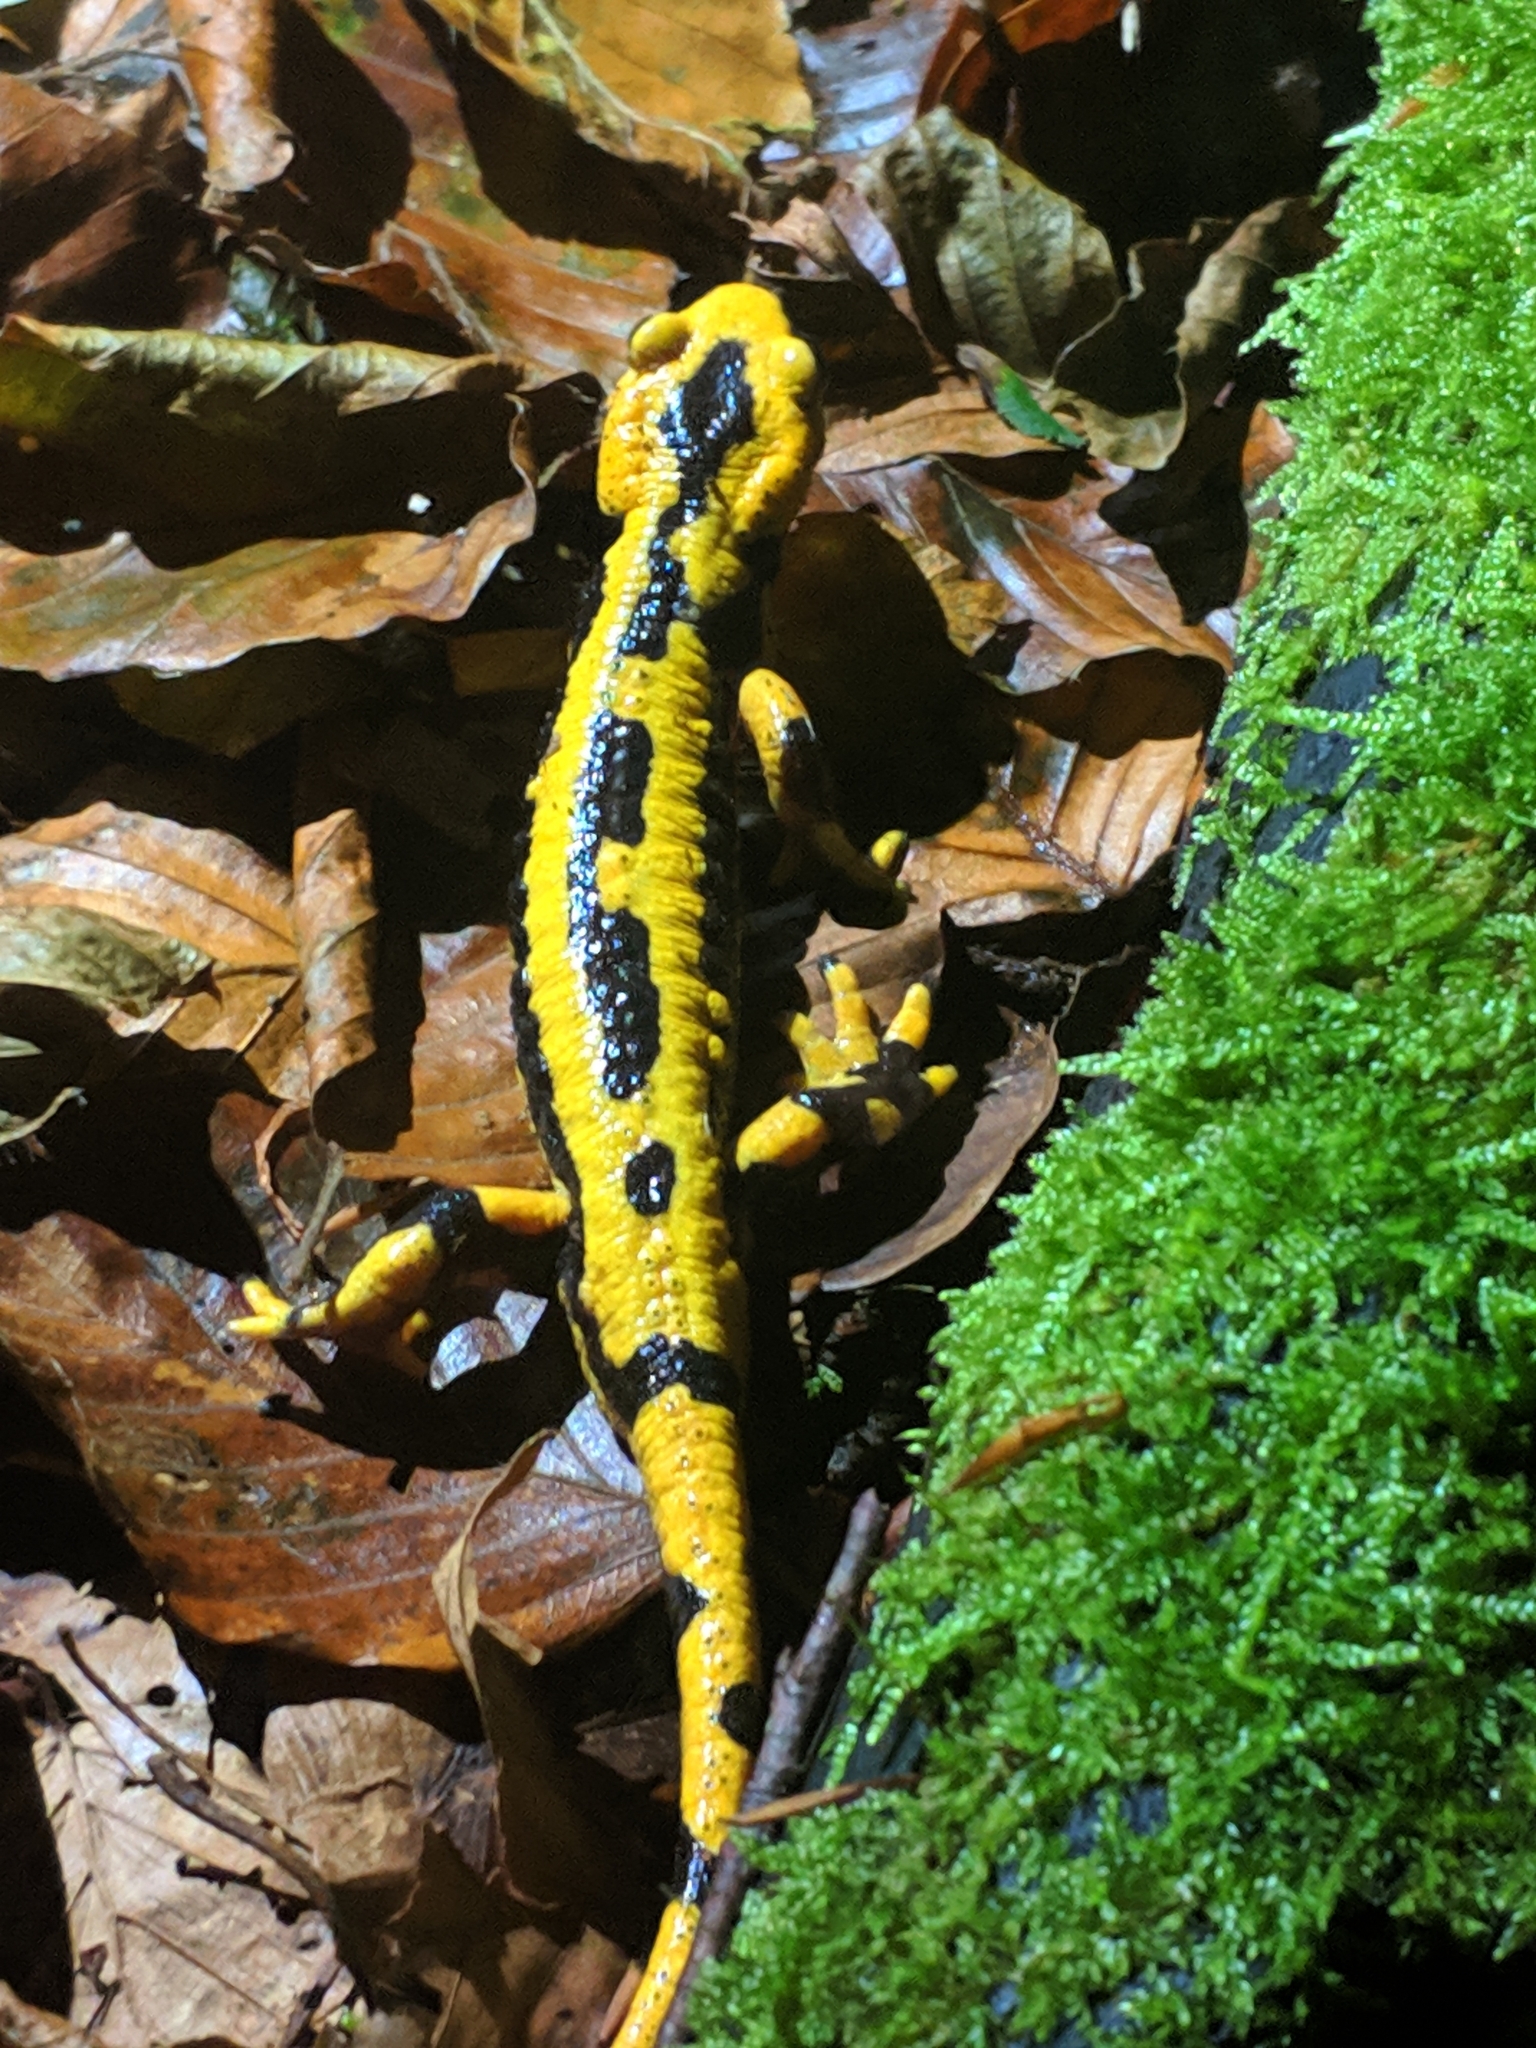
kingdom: Animalia
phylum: Chordata
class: Amphibia
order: Caudata
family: Salamandridae
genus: Salamandra
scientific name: Salamandra salamandra
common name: Fire salamander
